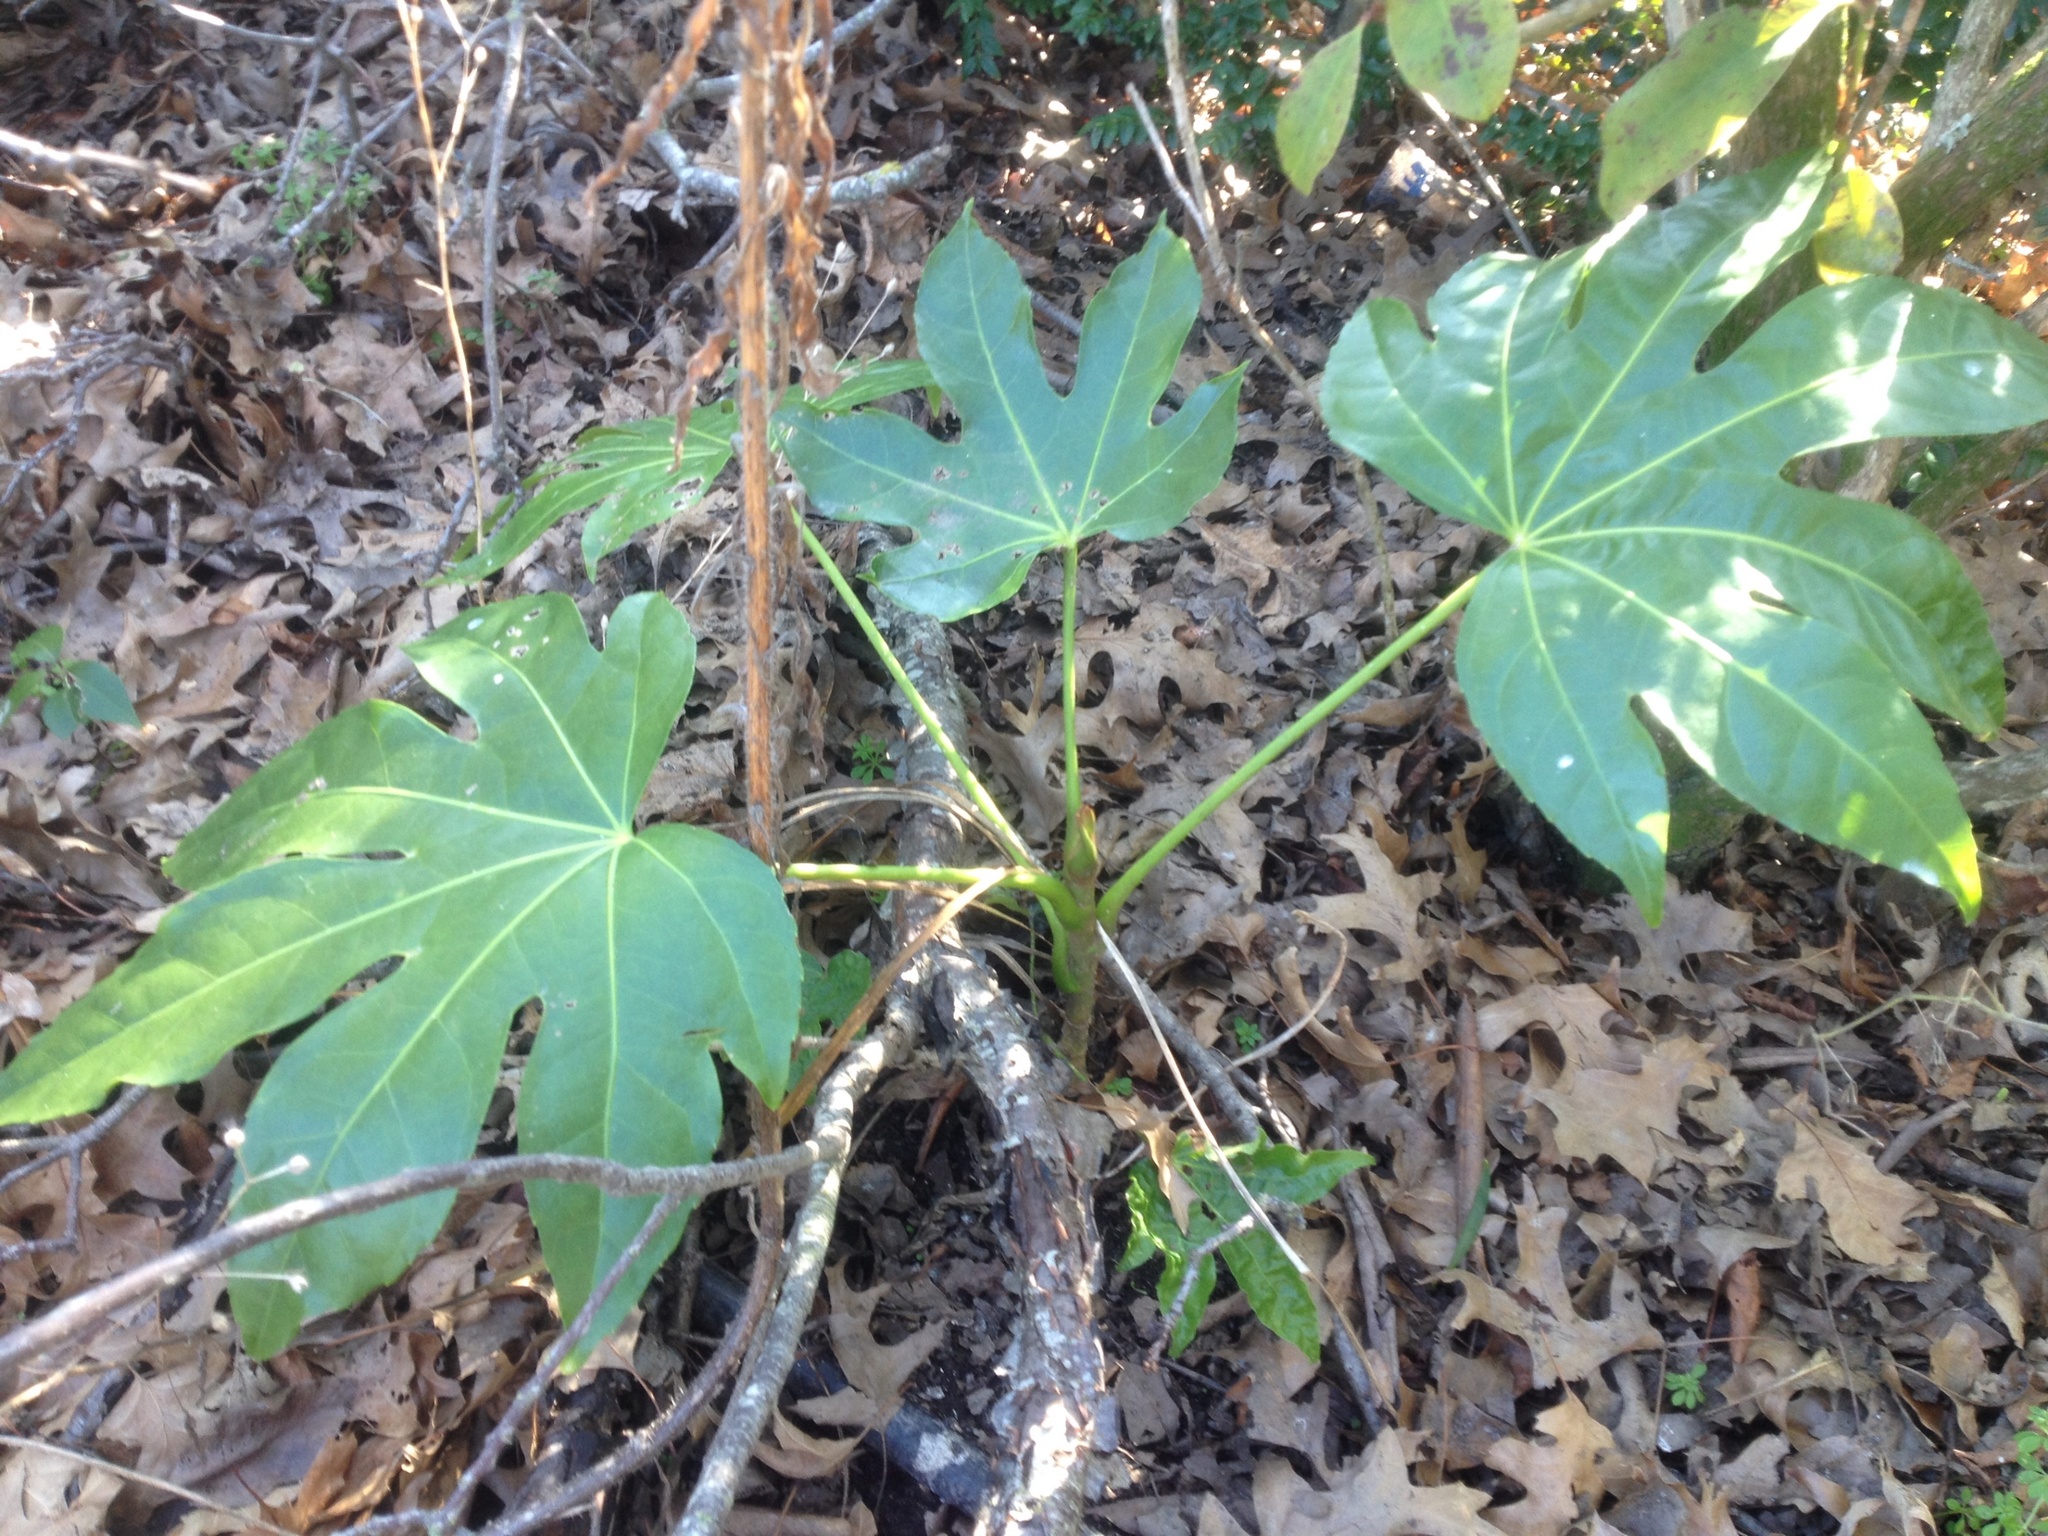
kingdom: Plantae
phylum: Tracheophyta
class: Magnoliopsida
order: Apiales
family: Araliaceae
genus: Fatsia
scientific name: Fatsia japonica
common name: Fatsia
